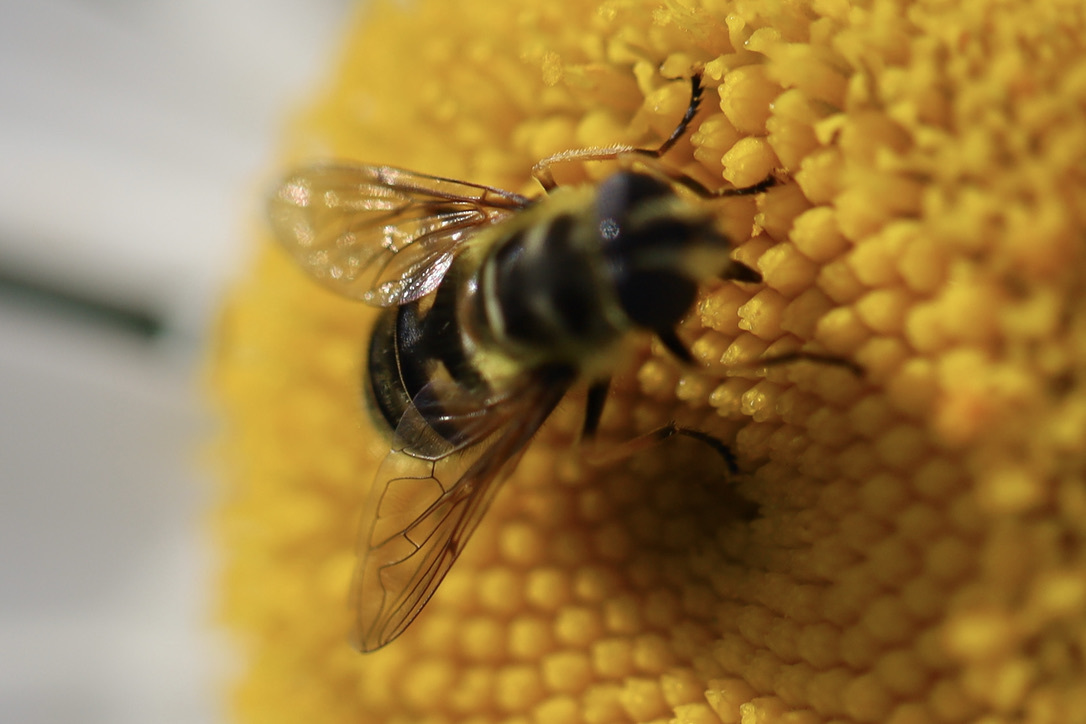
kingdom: Animalia
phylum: Arthropoda
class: Insecta
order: Diptera
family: Syrphidae
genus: Myathropa
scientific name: Myathropa florea
